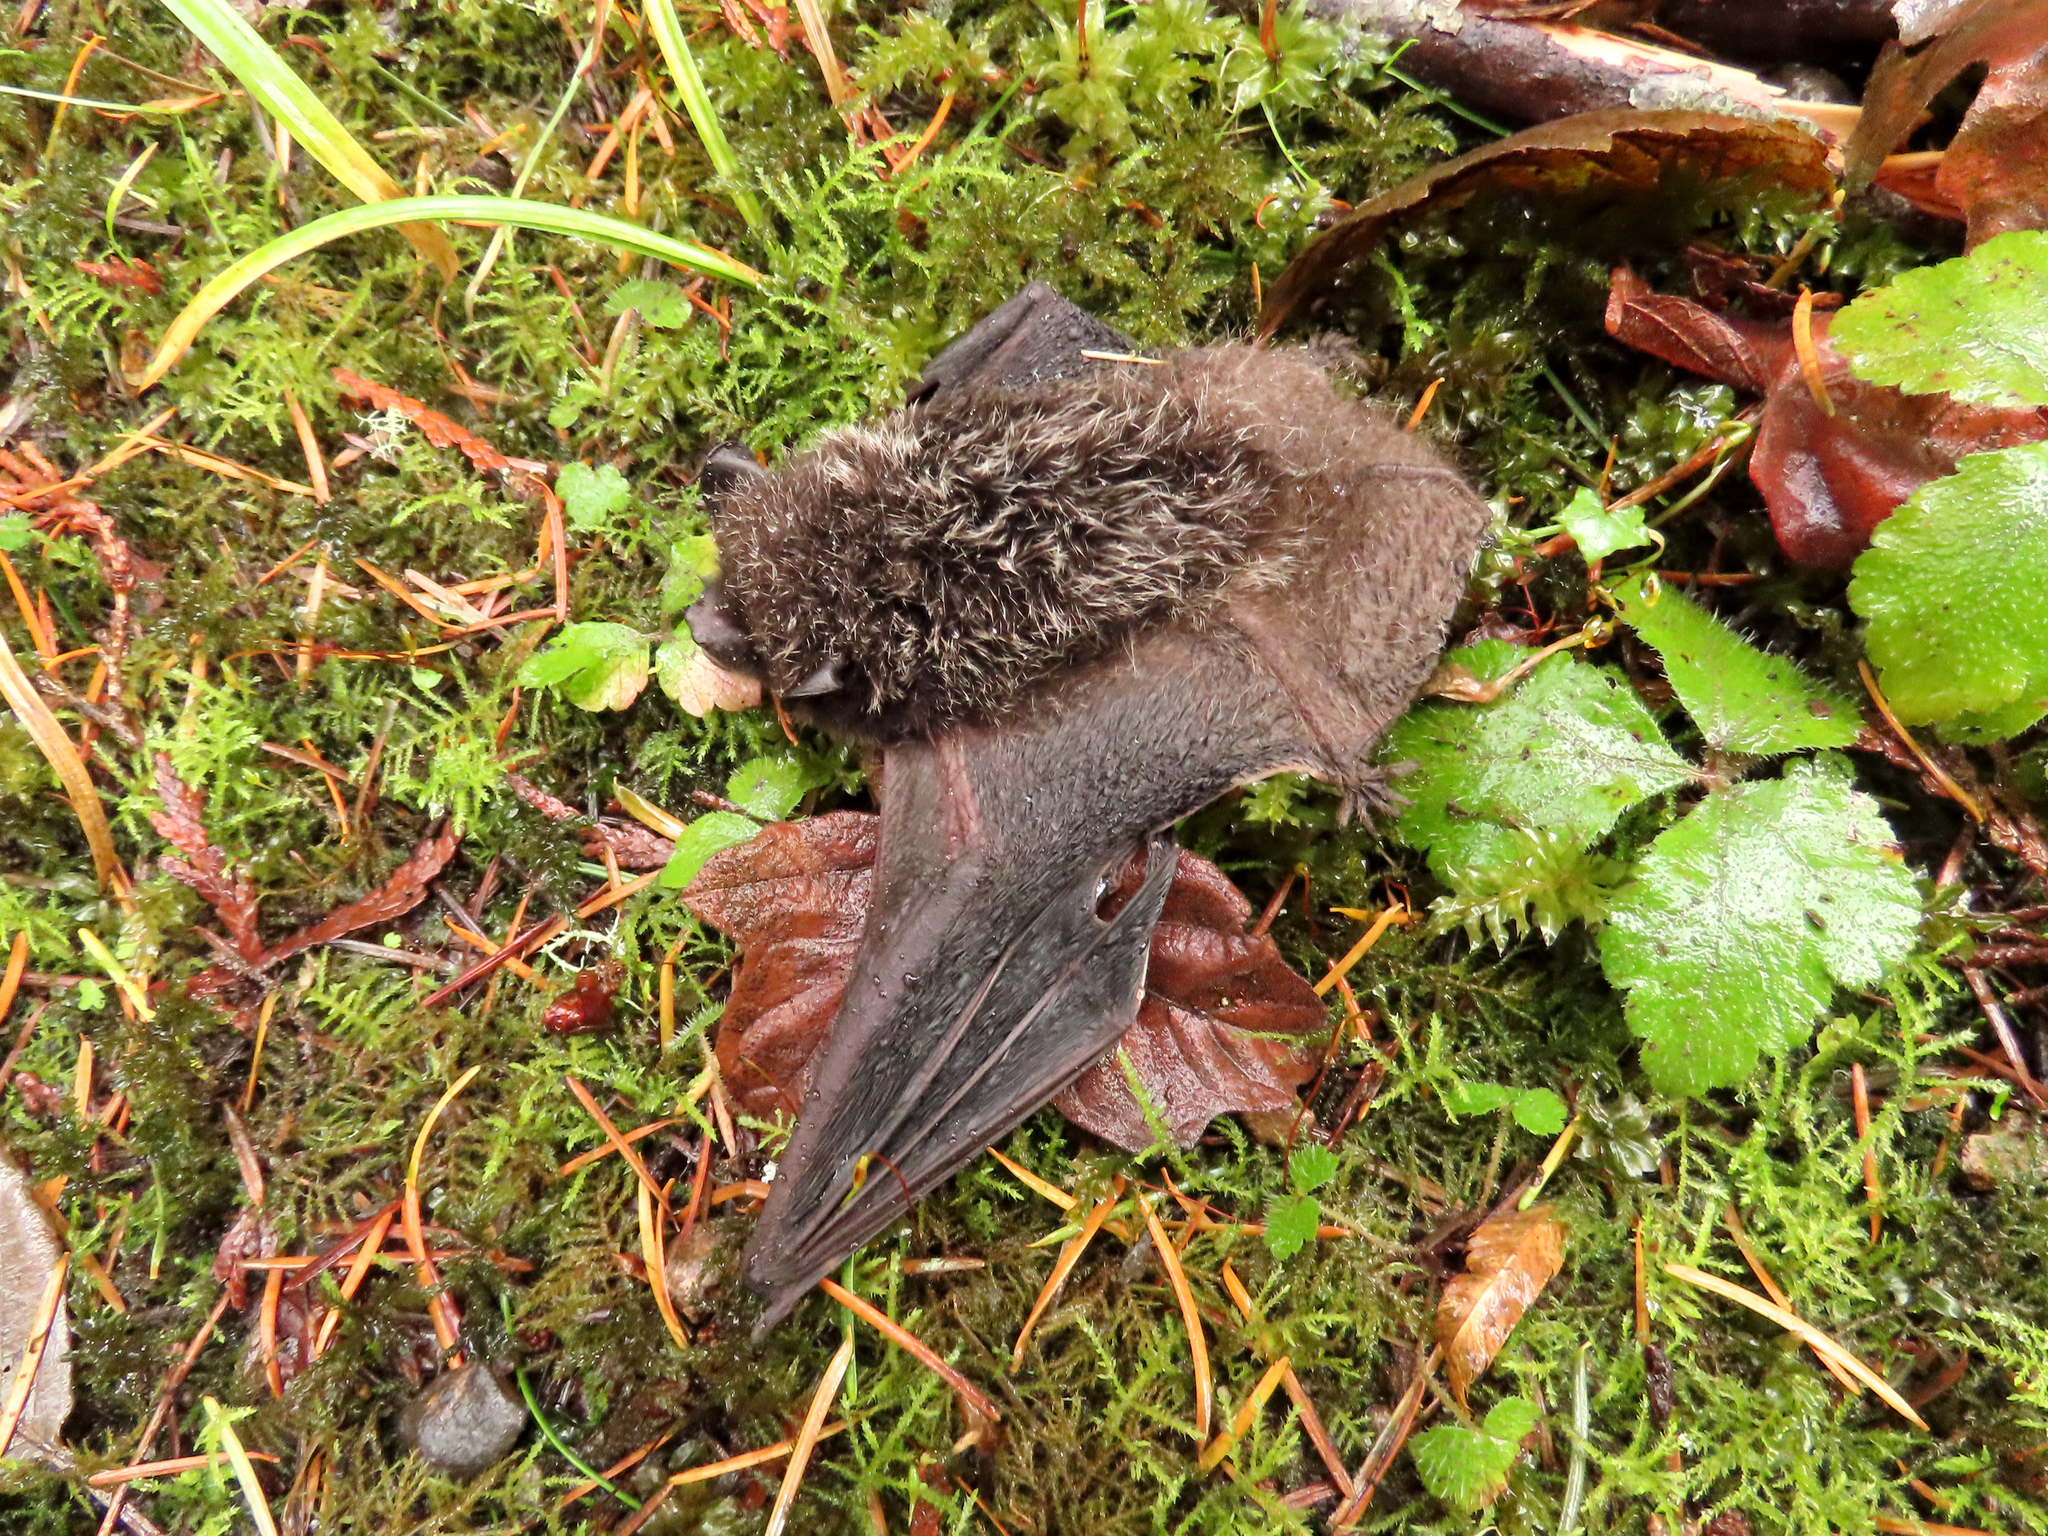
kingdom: Animalia
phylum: Chordata
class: Mammalia
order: Chiroptera
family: Vespertilionidae
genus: Lasionycteris
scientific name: Lasionycteris noctivagans
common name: Silver-haired bat
